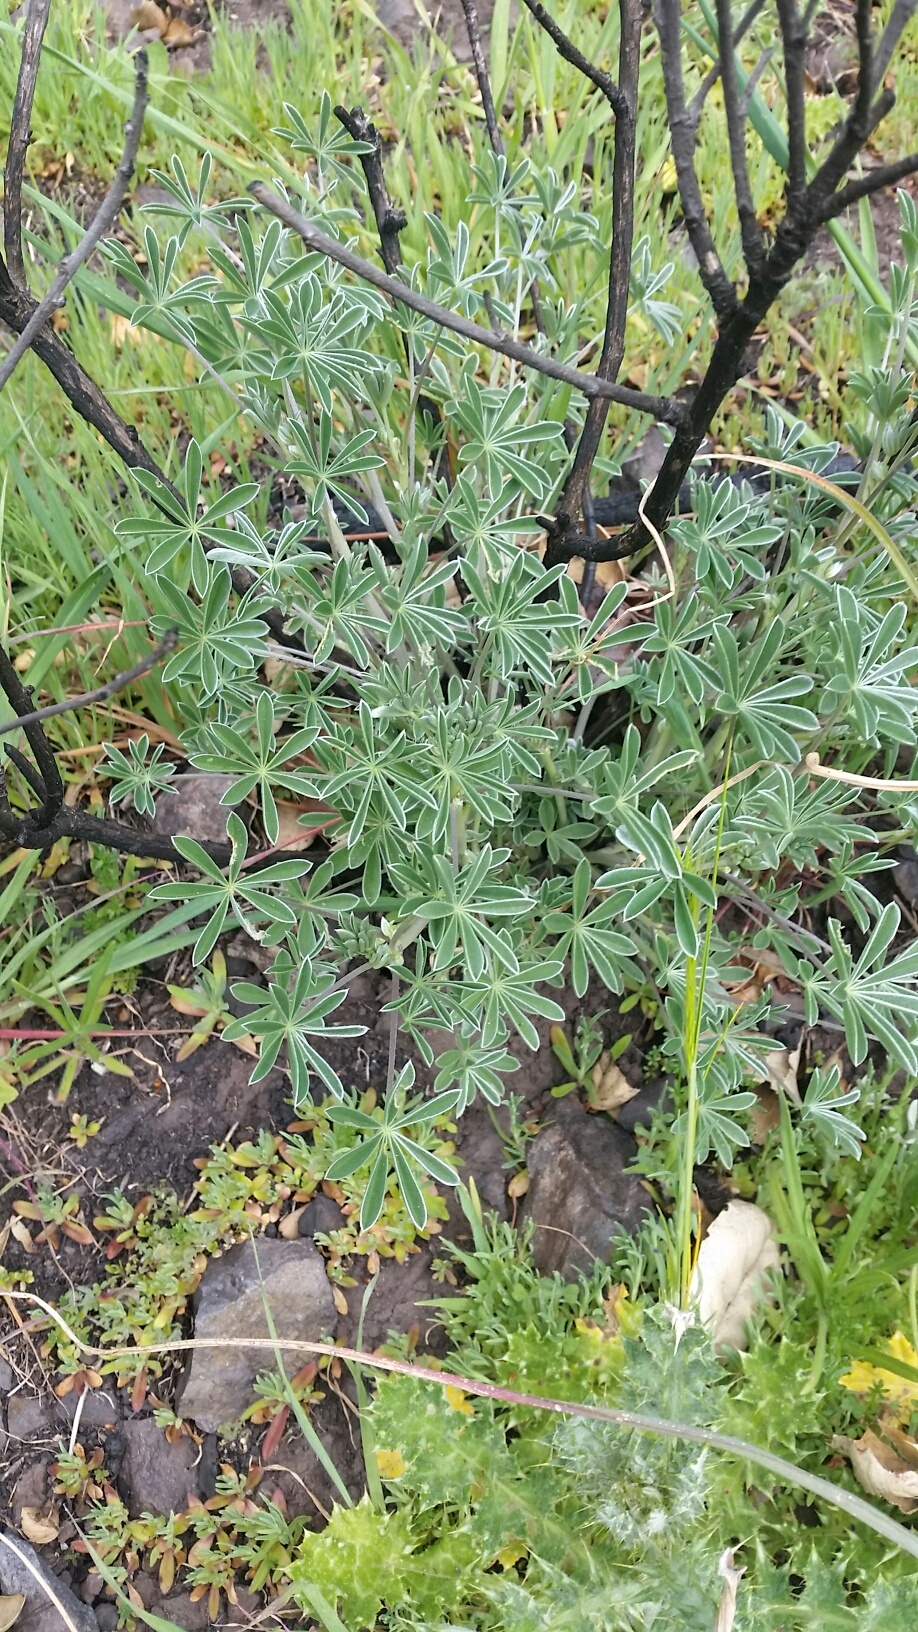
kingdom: Plantae
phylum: Tracheophyta
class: Magnoliopsida
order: Fabales
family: Fabaceae
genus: Lupinus
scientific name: Lupinus albifrons
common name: Foothill lupine
